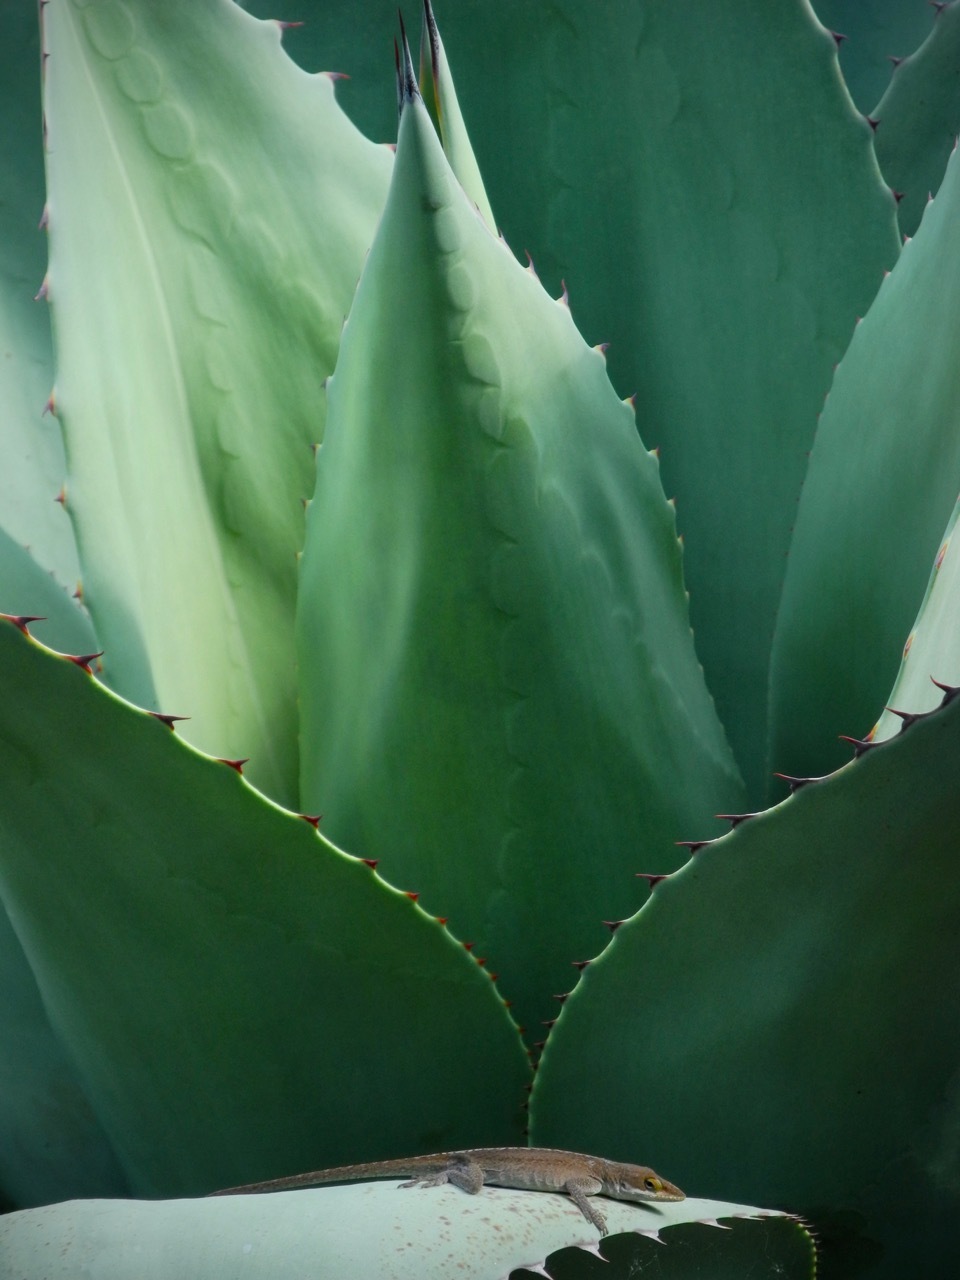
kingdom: Animalia
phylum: Chordata
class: Squamata
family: Dactyloidae
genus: Anolis
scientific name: Anolis carolinensis
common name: Green anole
